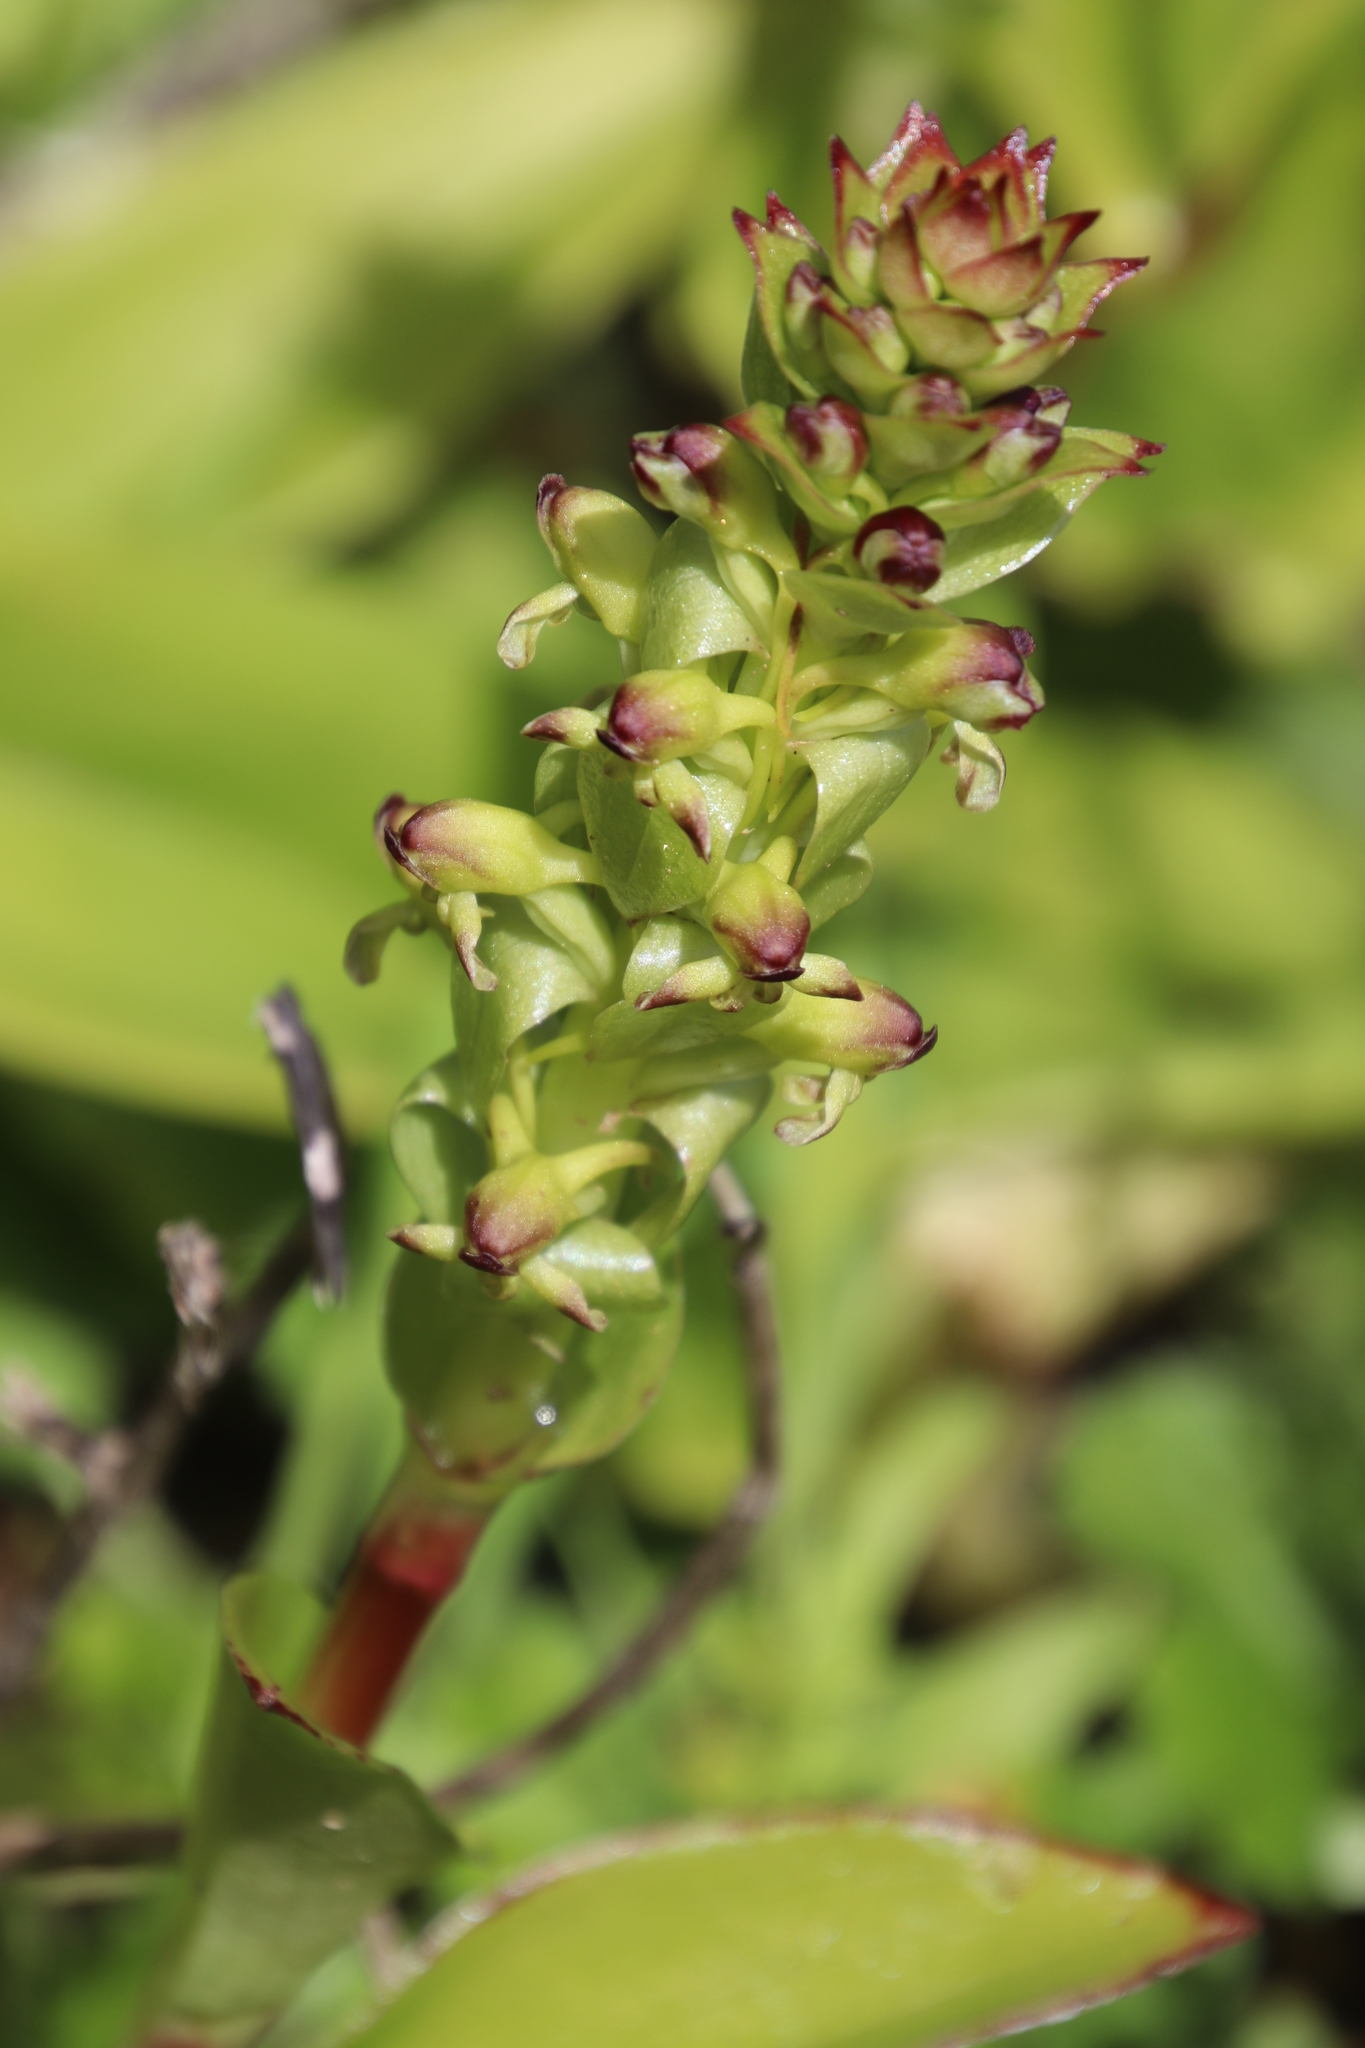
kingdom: Plantae
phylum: Tracheophyta
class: Liliopsida
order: Asparagales
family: Orchidaceae
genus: Satyrium
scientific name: Satyrium odorum
